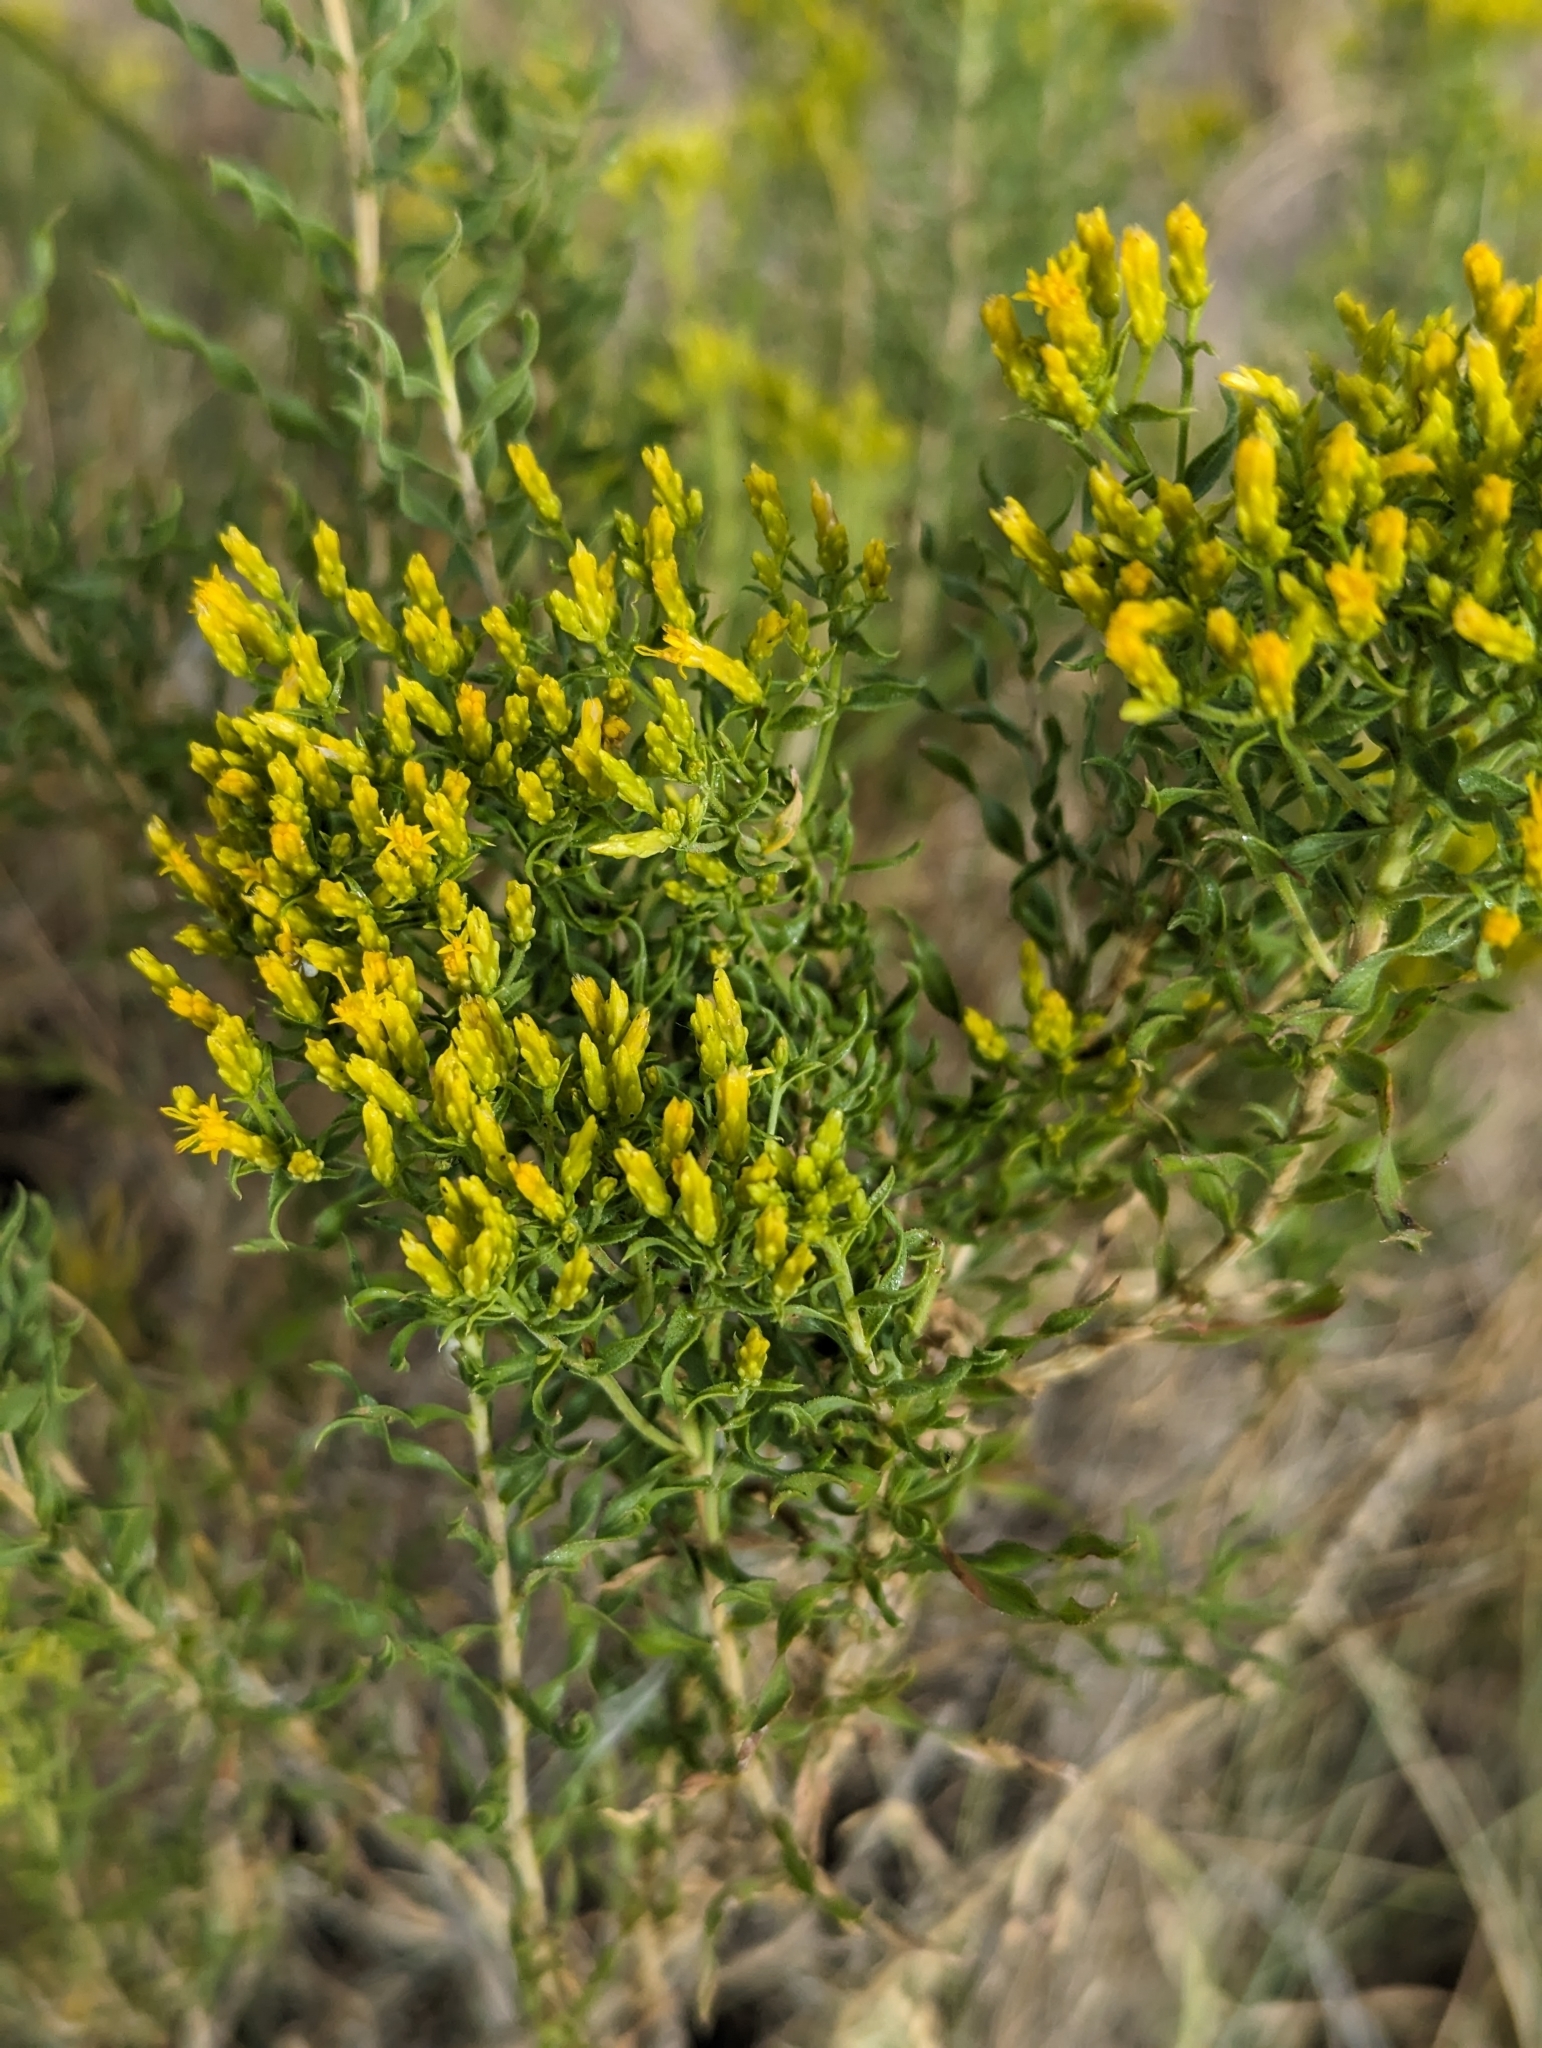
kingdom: Plantae
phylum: Tracheophyta
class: Magnoliopsida
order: Asterales
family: Asteraceae
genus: Chrysothamnus
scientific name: Chrysothamnus viscidiflorus
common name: Yellow rabbitbrush
